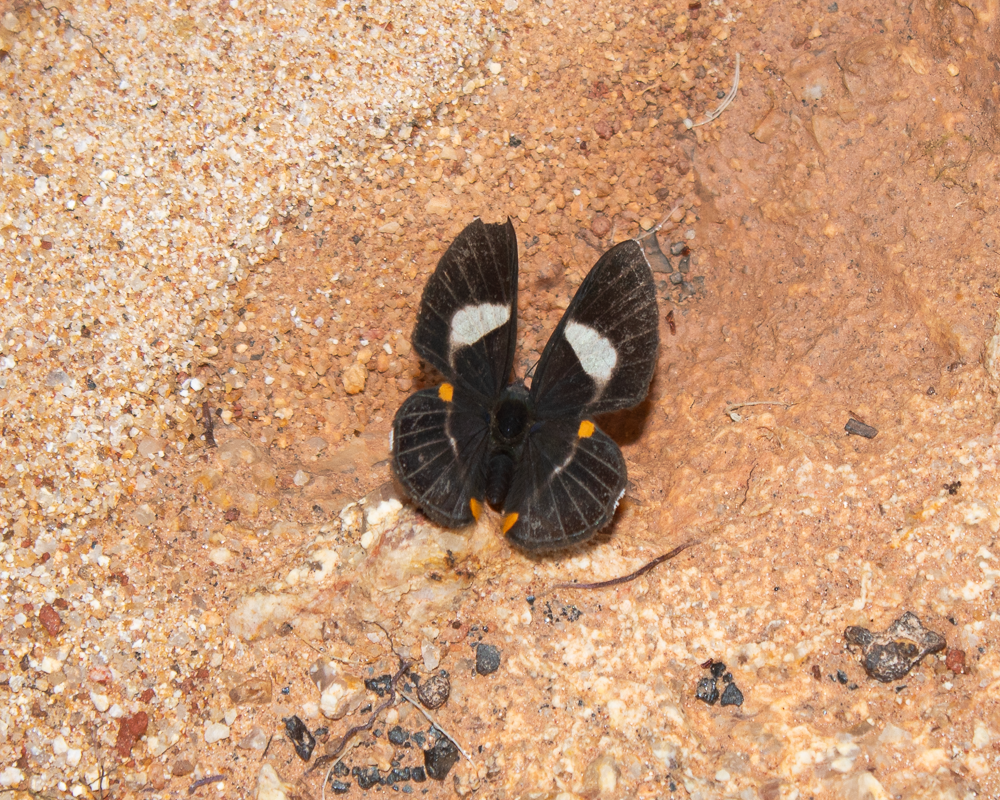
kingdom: Animalia
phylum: Arthropoda
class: Insecta
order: Lepidoptera
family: Riodinidae
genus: Notheme
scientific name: Notheme eumeus
